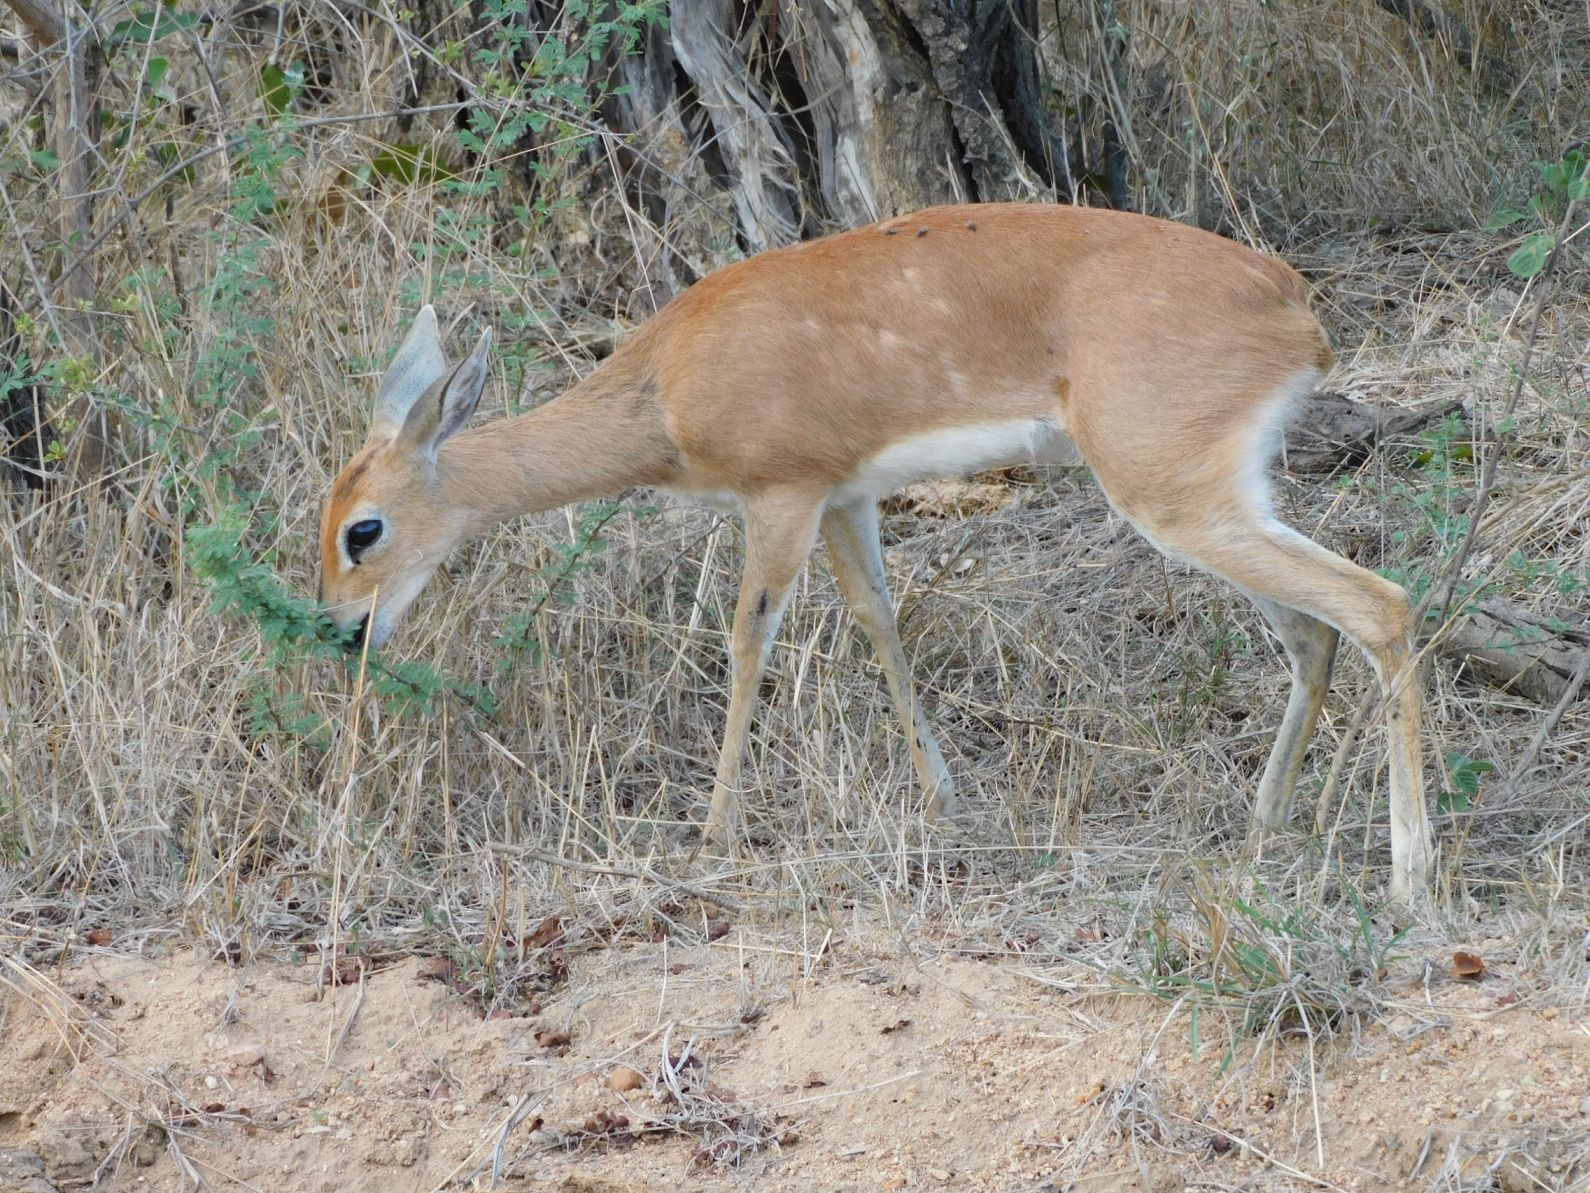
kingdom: Animalia
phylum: Chordata
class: Mammalia
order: Artiodactyla
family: Bovidae
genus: Raphicerus
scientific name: Raphicerus campestris
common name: Steenbok
